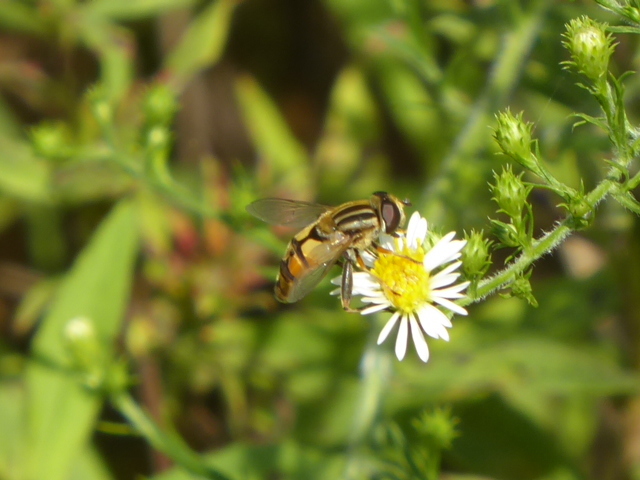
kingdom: Animalia
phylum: Arthropoda
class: Insecta
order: Diptera
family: Syrphidae
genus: Helophilus
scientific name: Helophilus latifrons
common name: Broad-headed marsh fly
